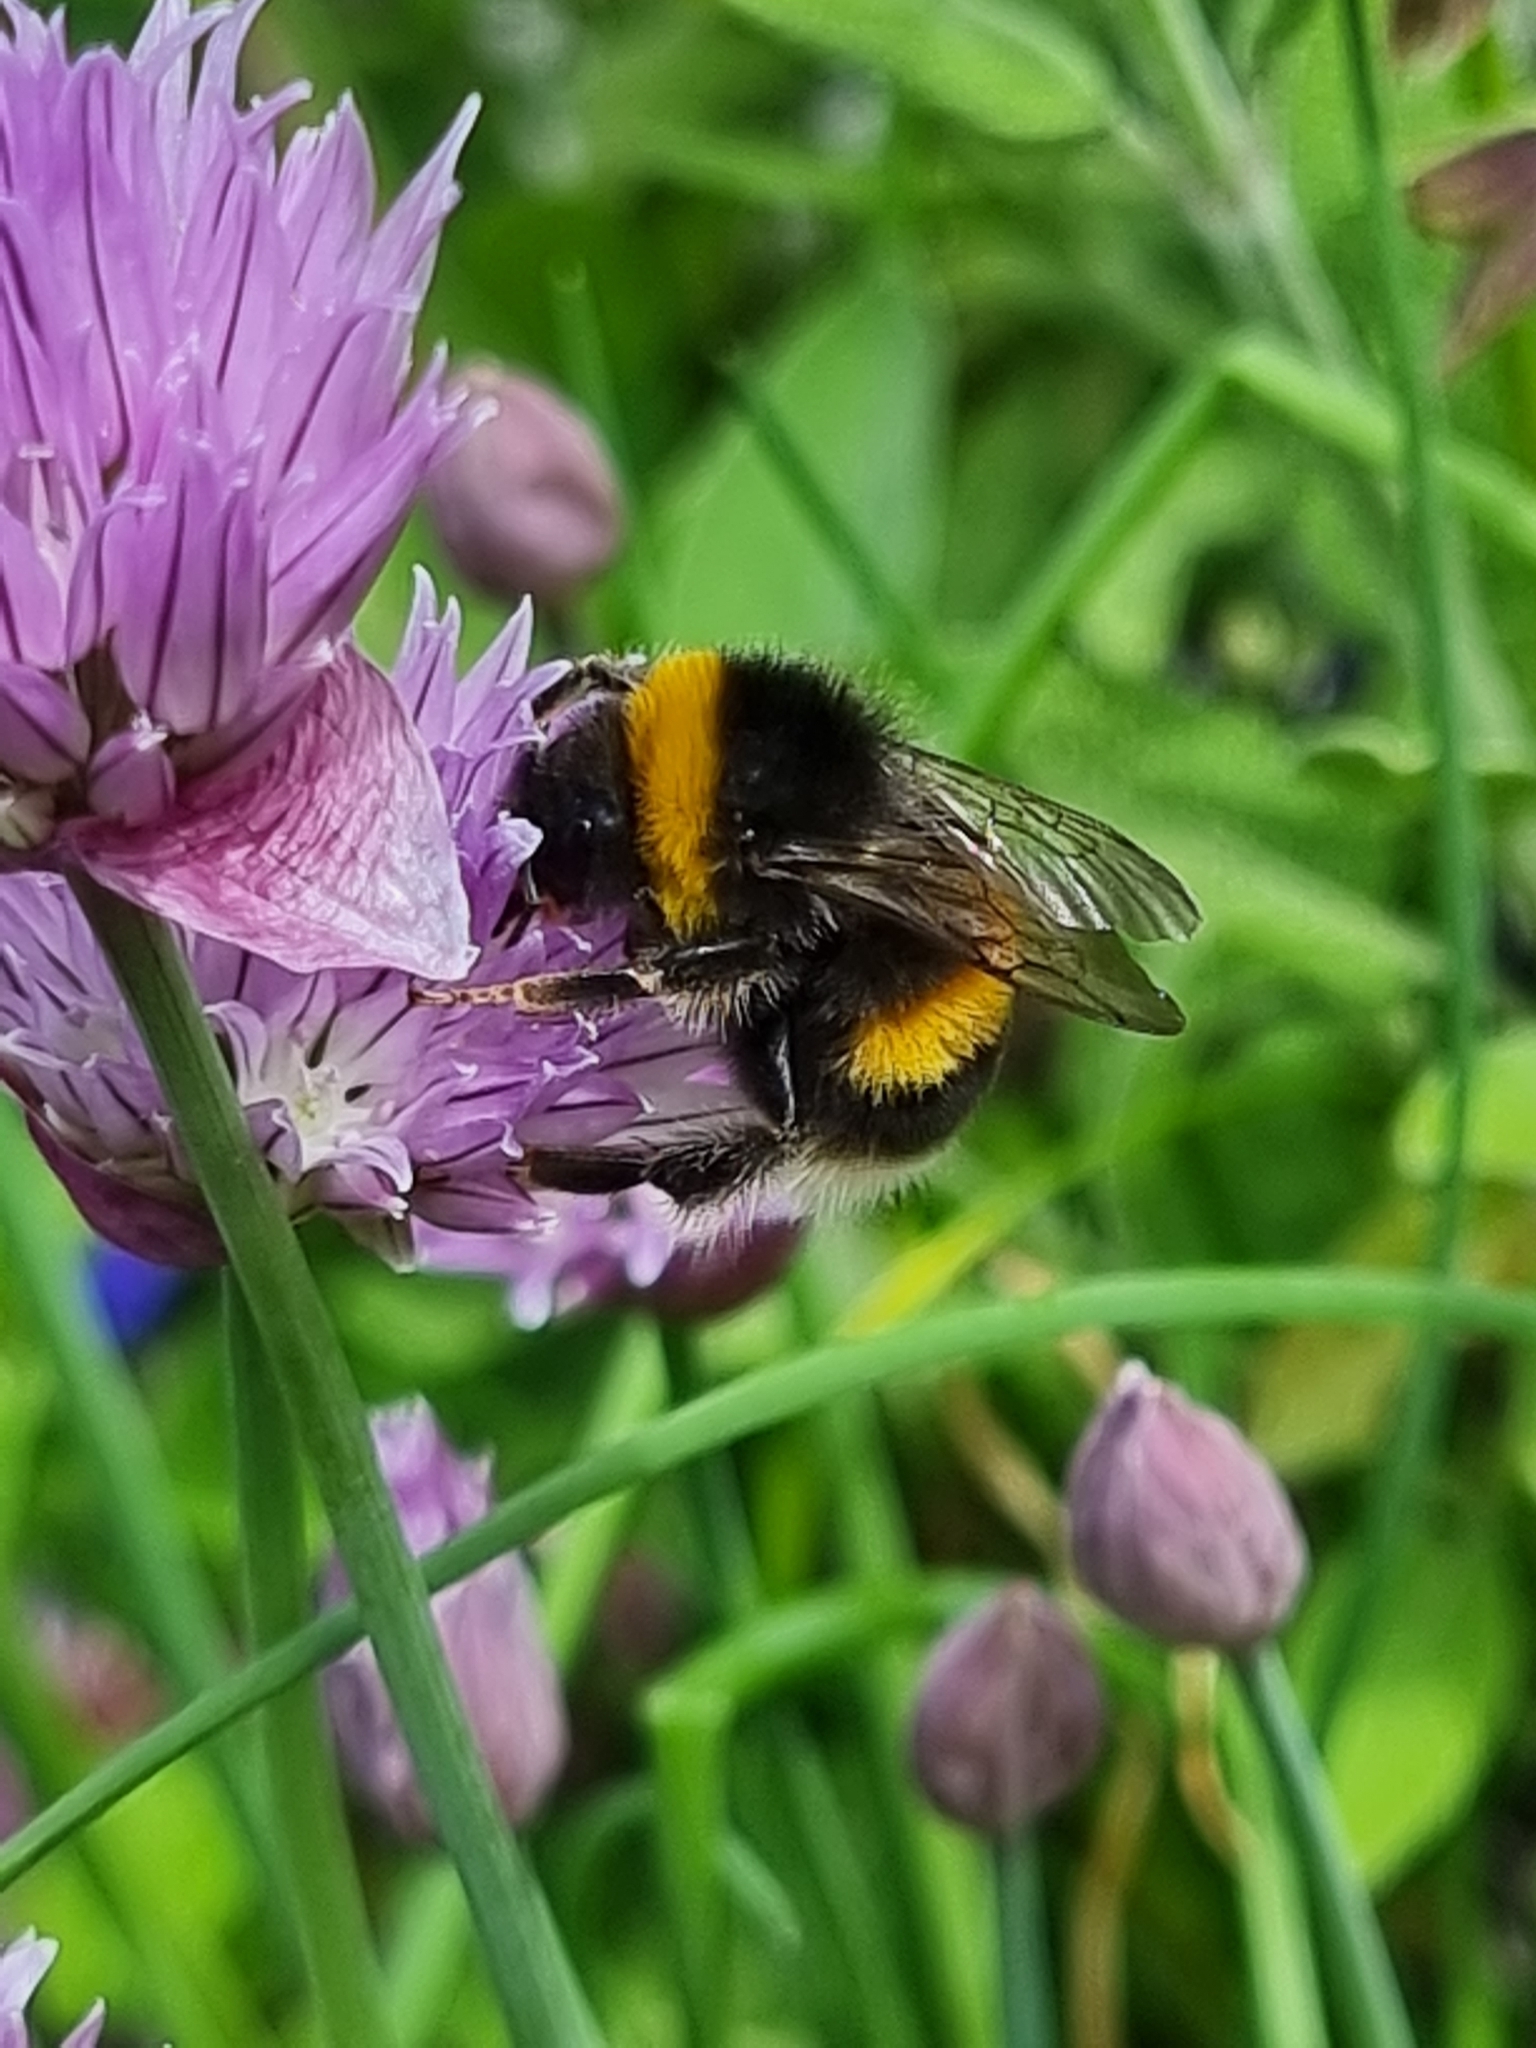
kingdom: Animalia
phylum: Arthropoda
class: Insecta
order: Hymenoptera
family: Apidae
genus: Bombus
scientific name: Bombus terrestris
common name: Buff-tailed bumblebee
